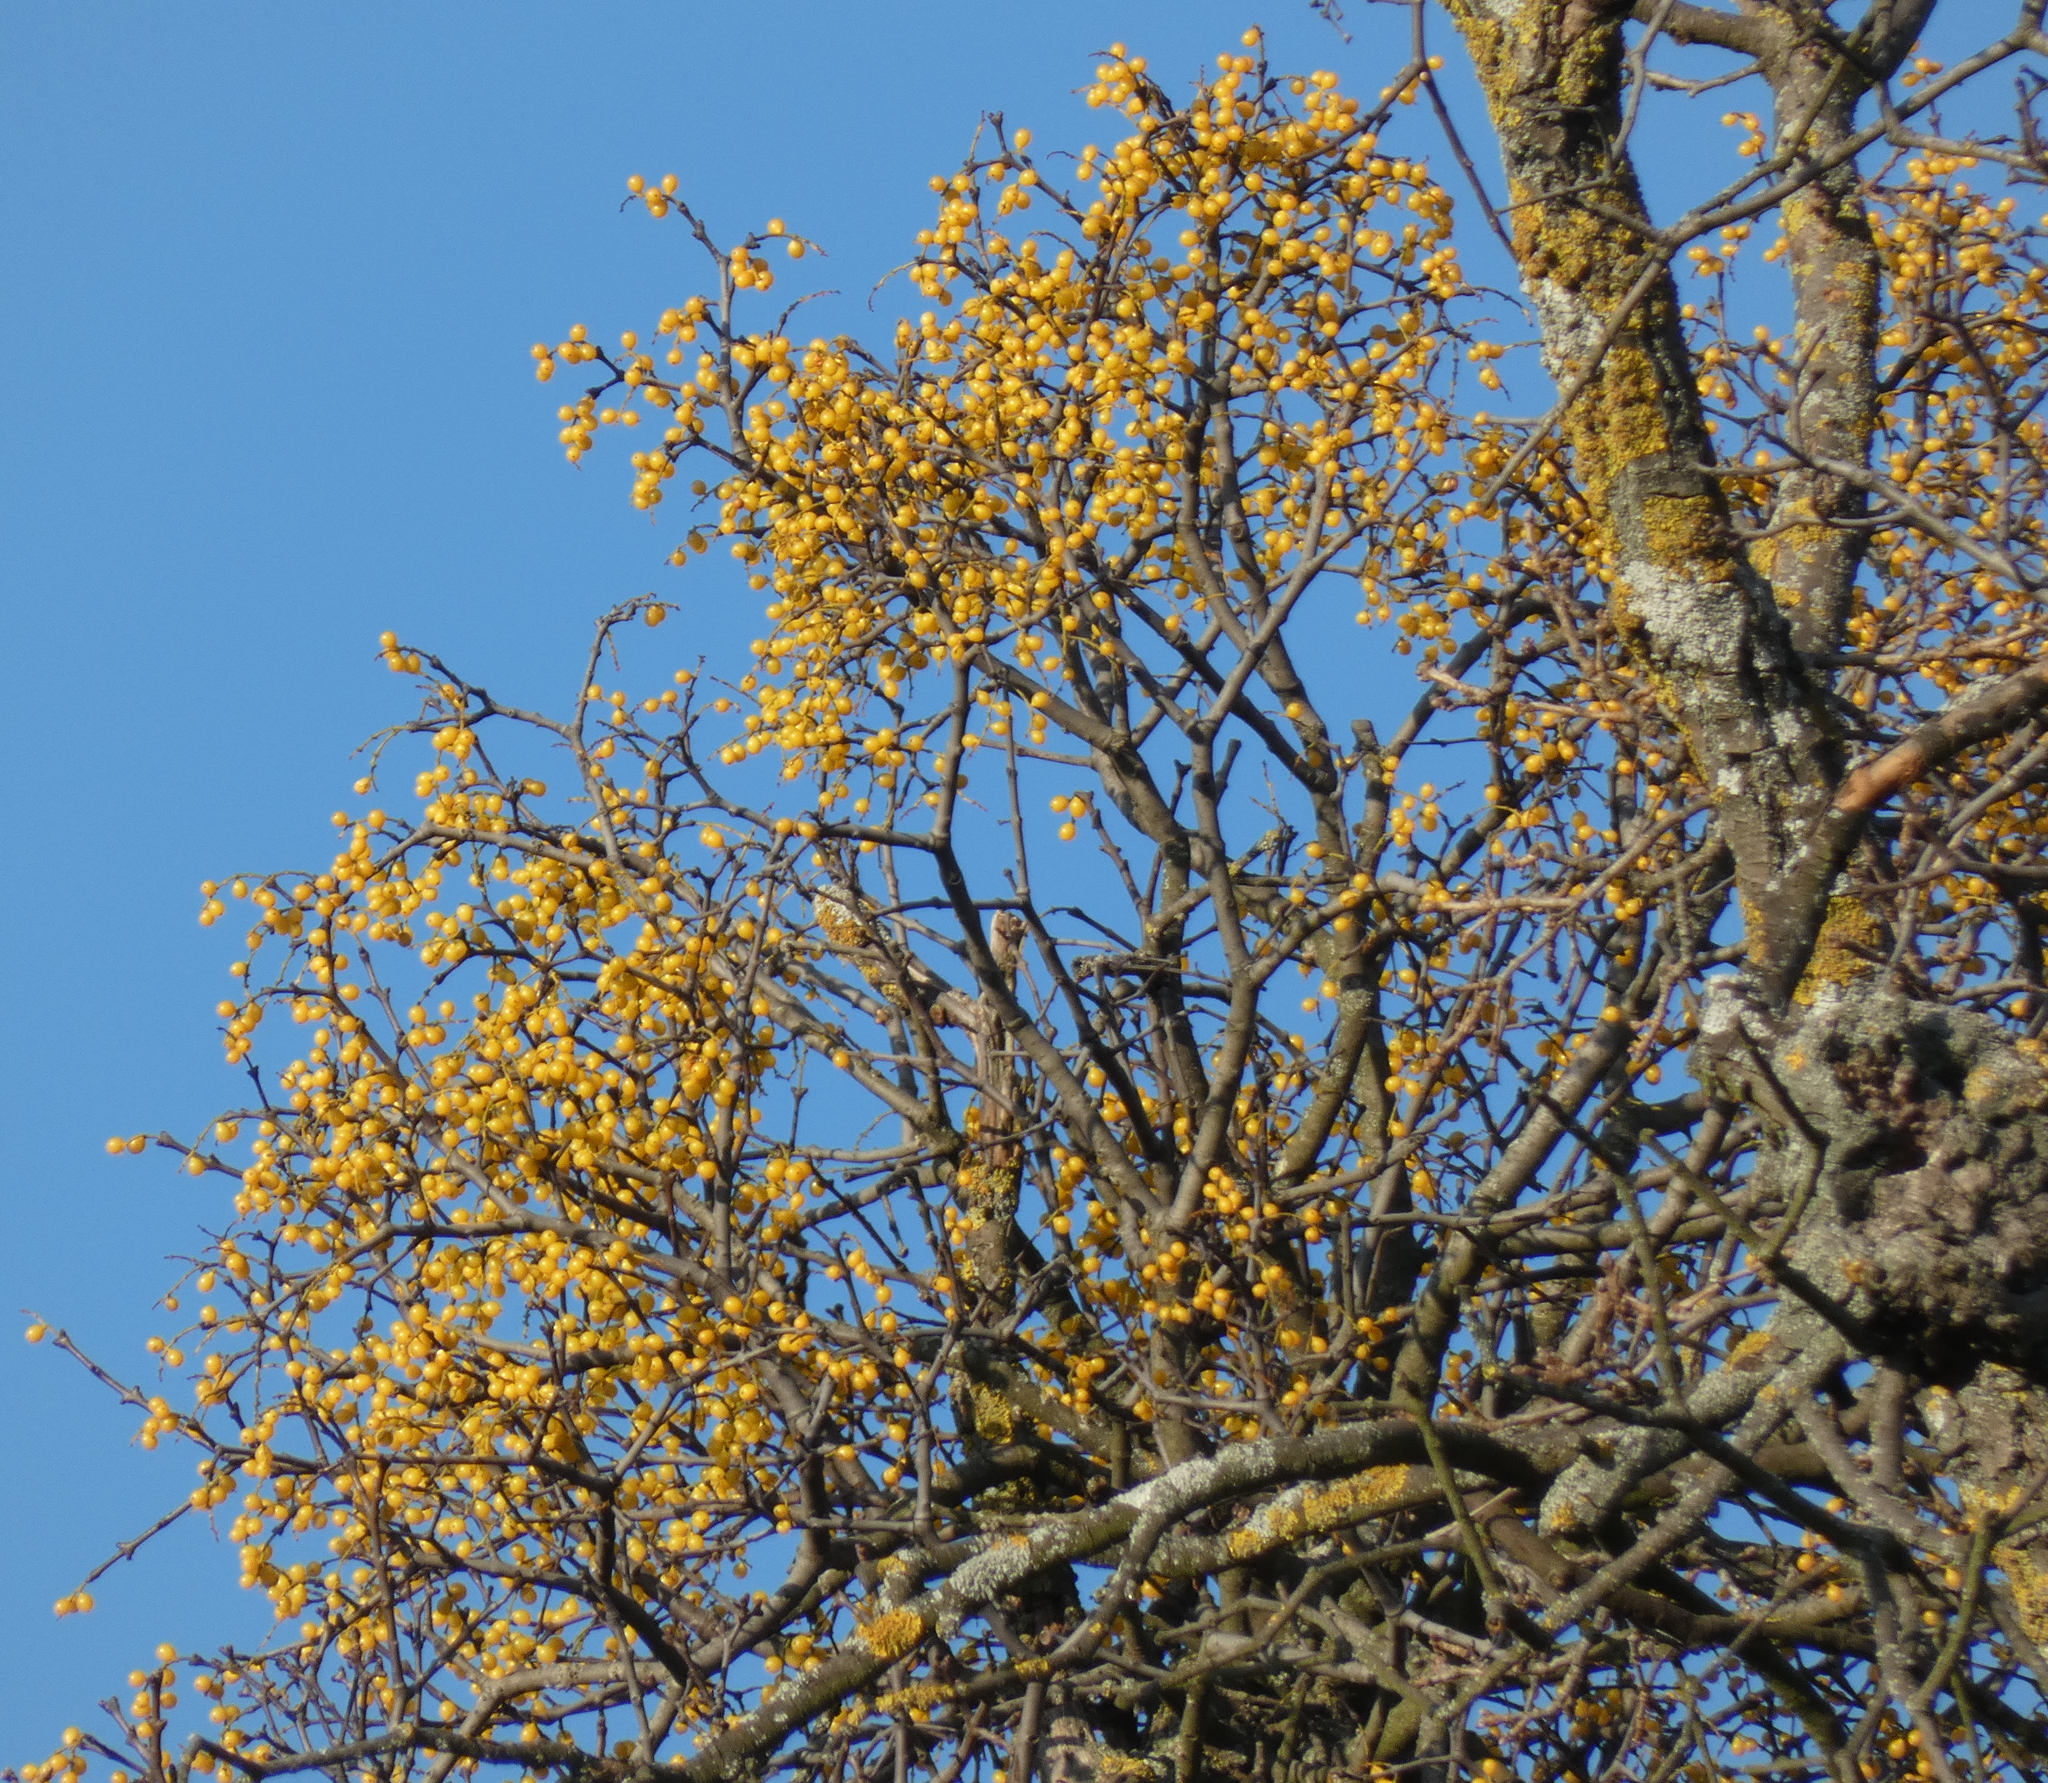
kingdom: Plantae
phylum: Tracheophyta
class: Magnoliopsida
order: Santalales
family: Loranthaceae
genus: Loranthus
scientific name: Loranthus europaeus
